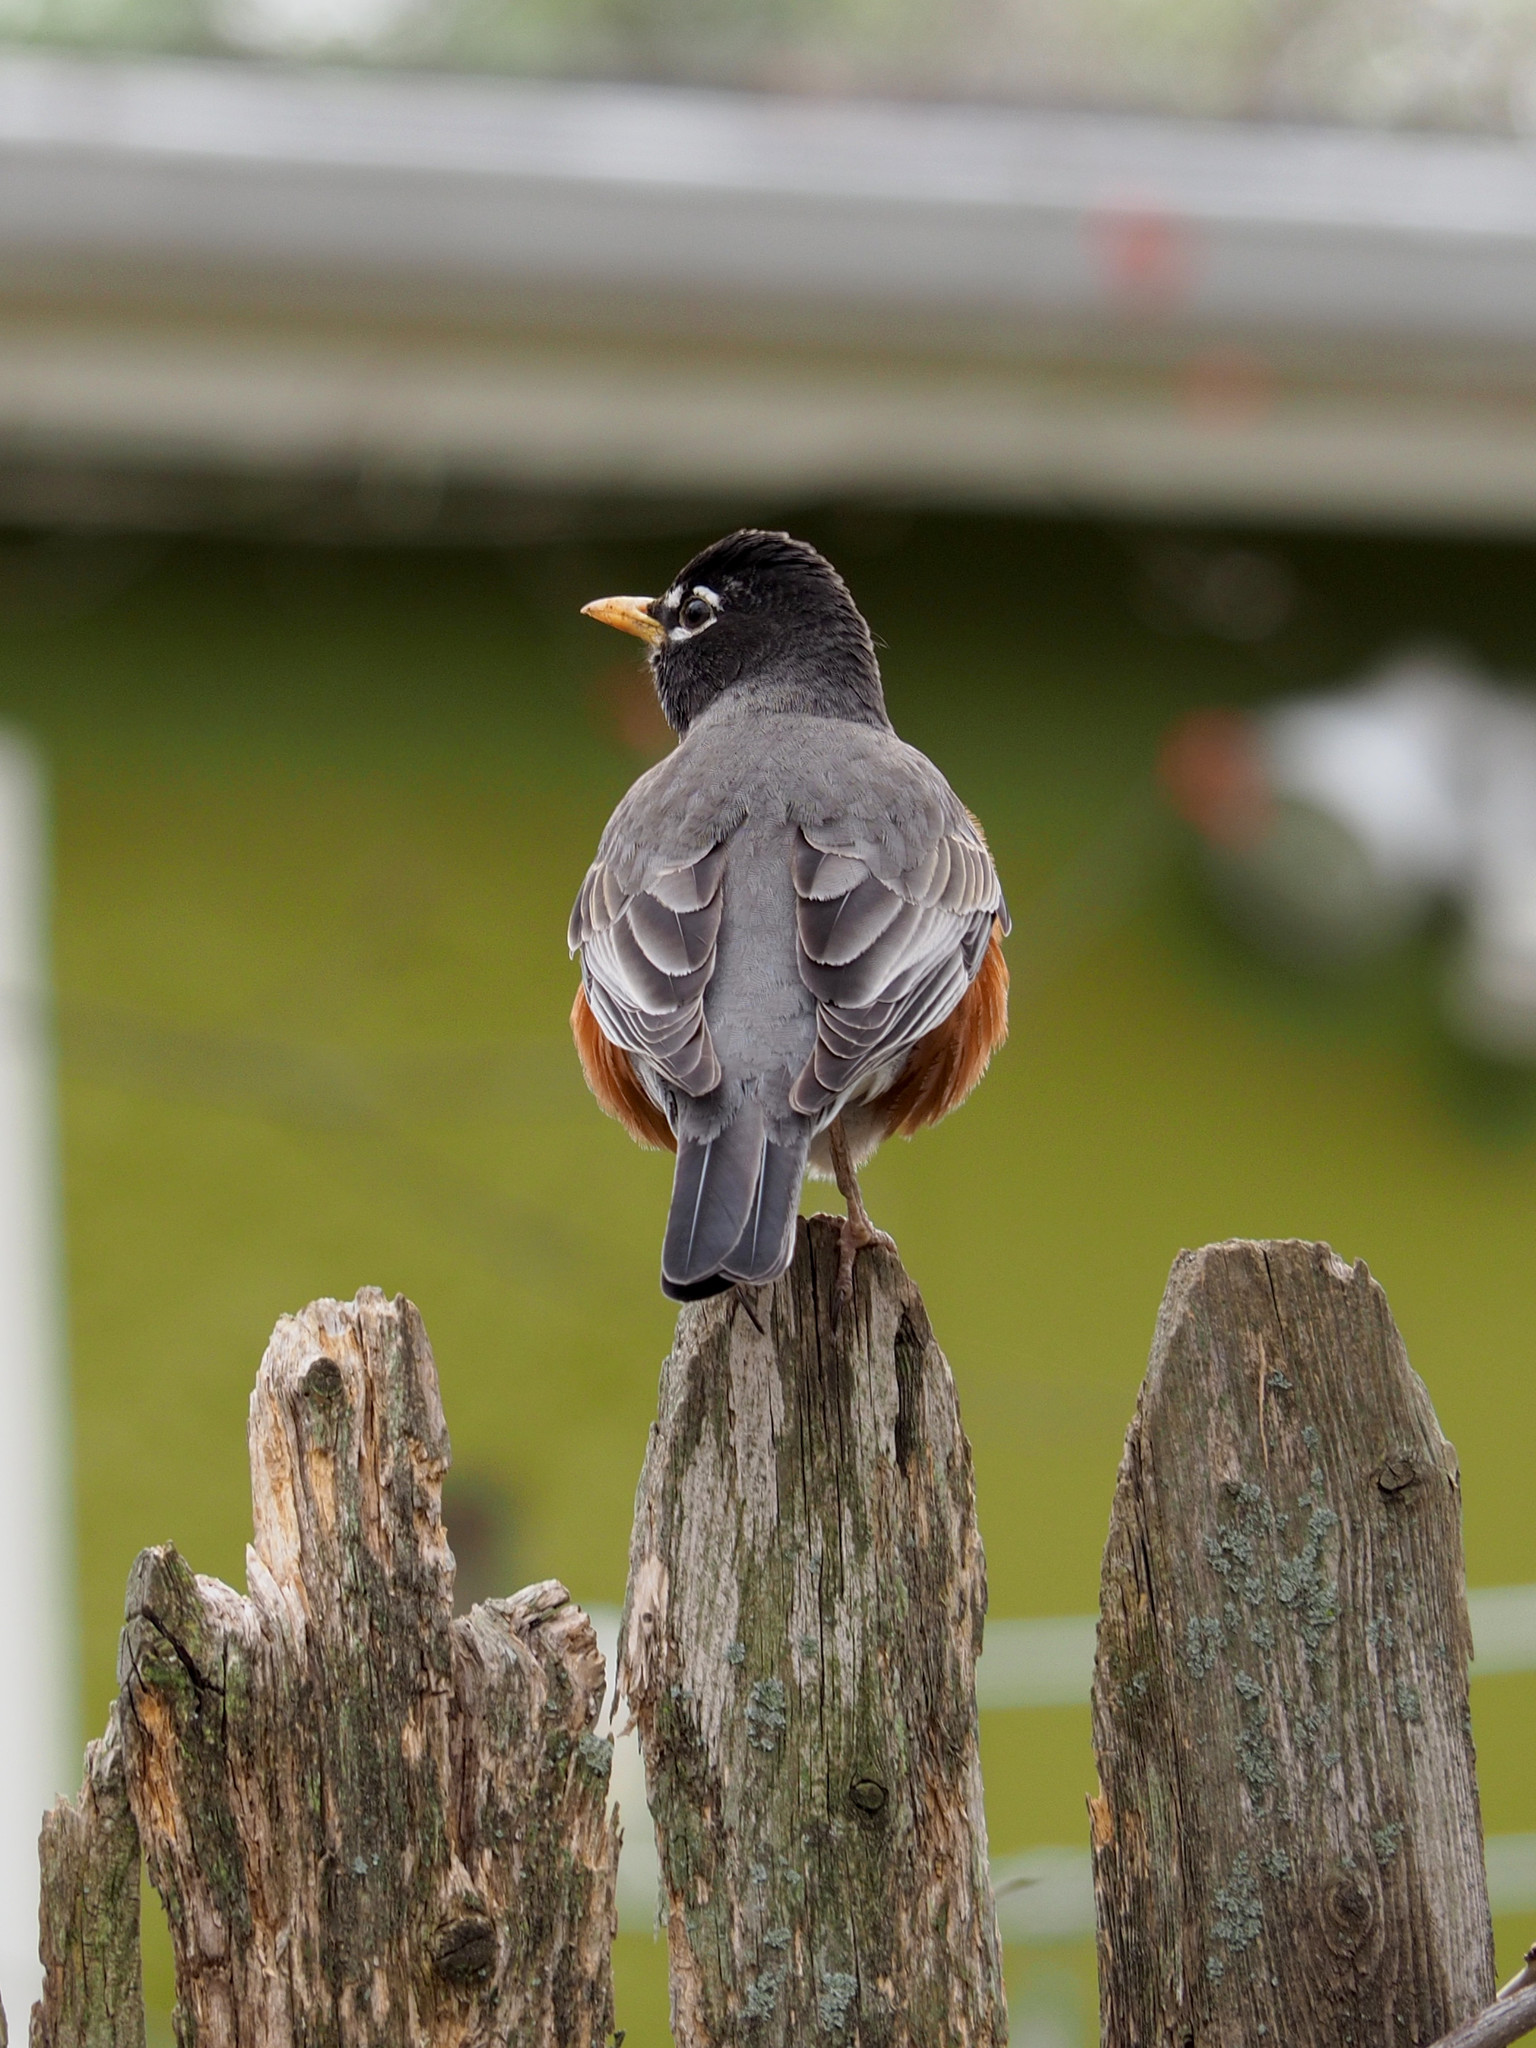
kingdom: Animalia
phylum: Chordata
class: Aves
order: Passeriformes
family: Turdidae
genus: Turdus
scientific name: Turdus migratorius
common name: American robin
